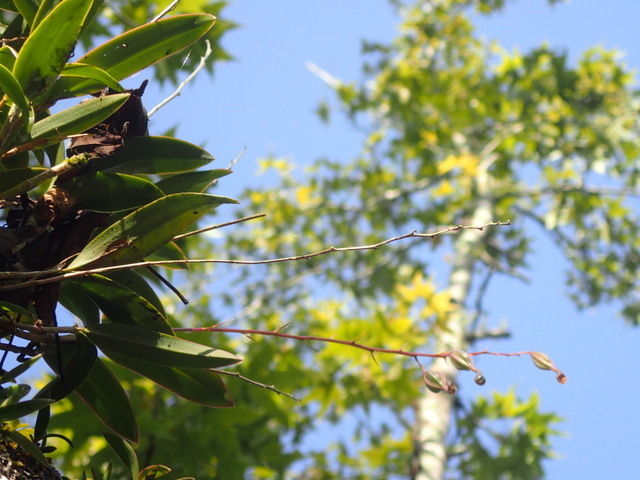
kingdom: Plantae
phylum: Tracheophyta
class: Liliopsida
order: Asparagales
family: Orchidaceae
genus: Epidendrum
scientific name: Epidendrum conopseum
